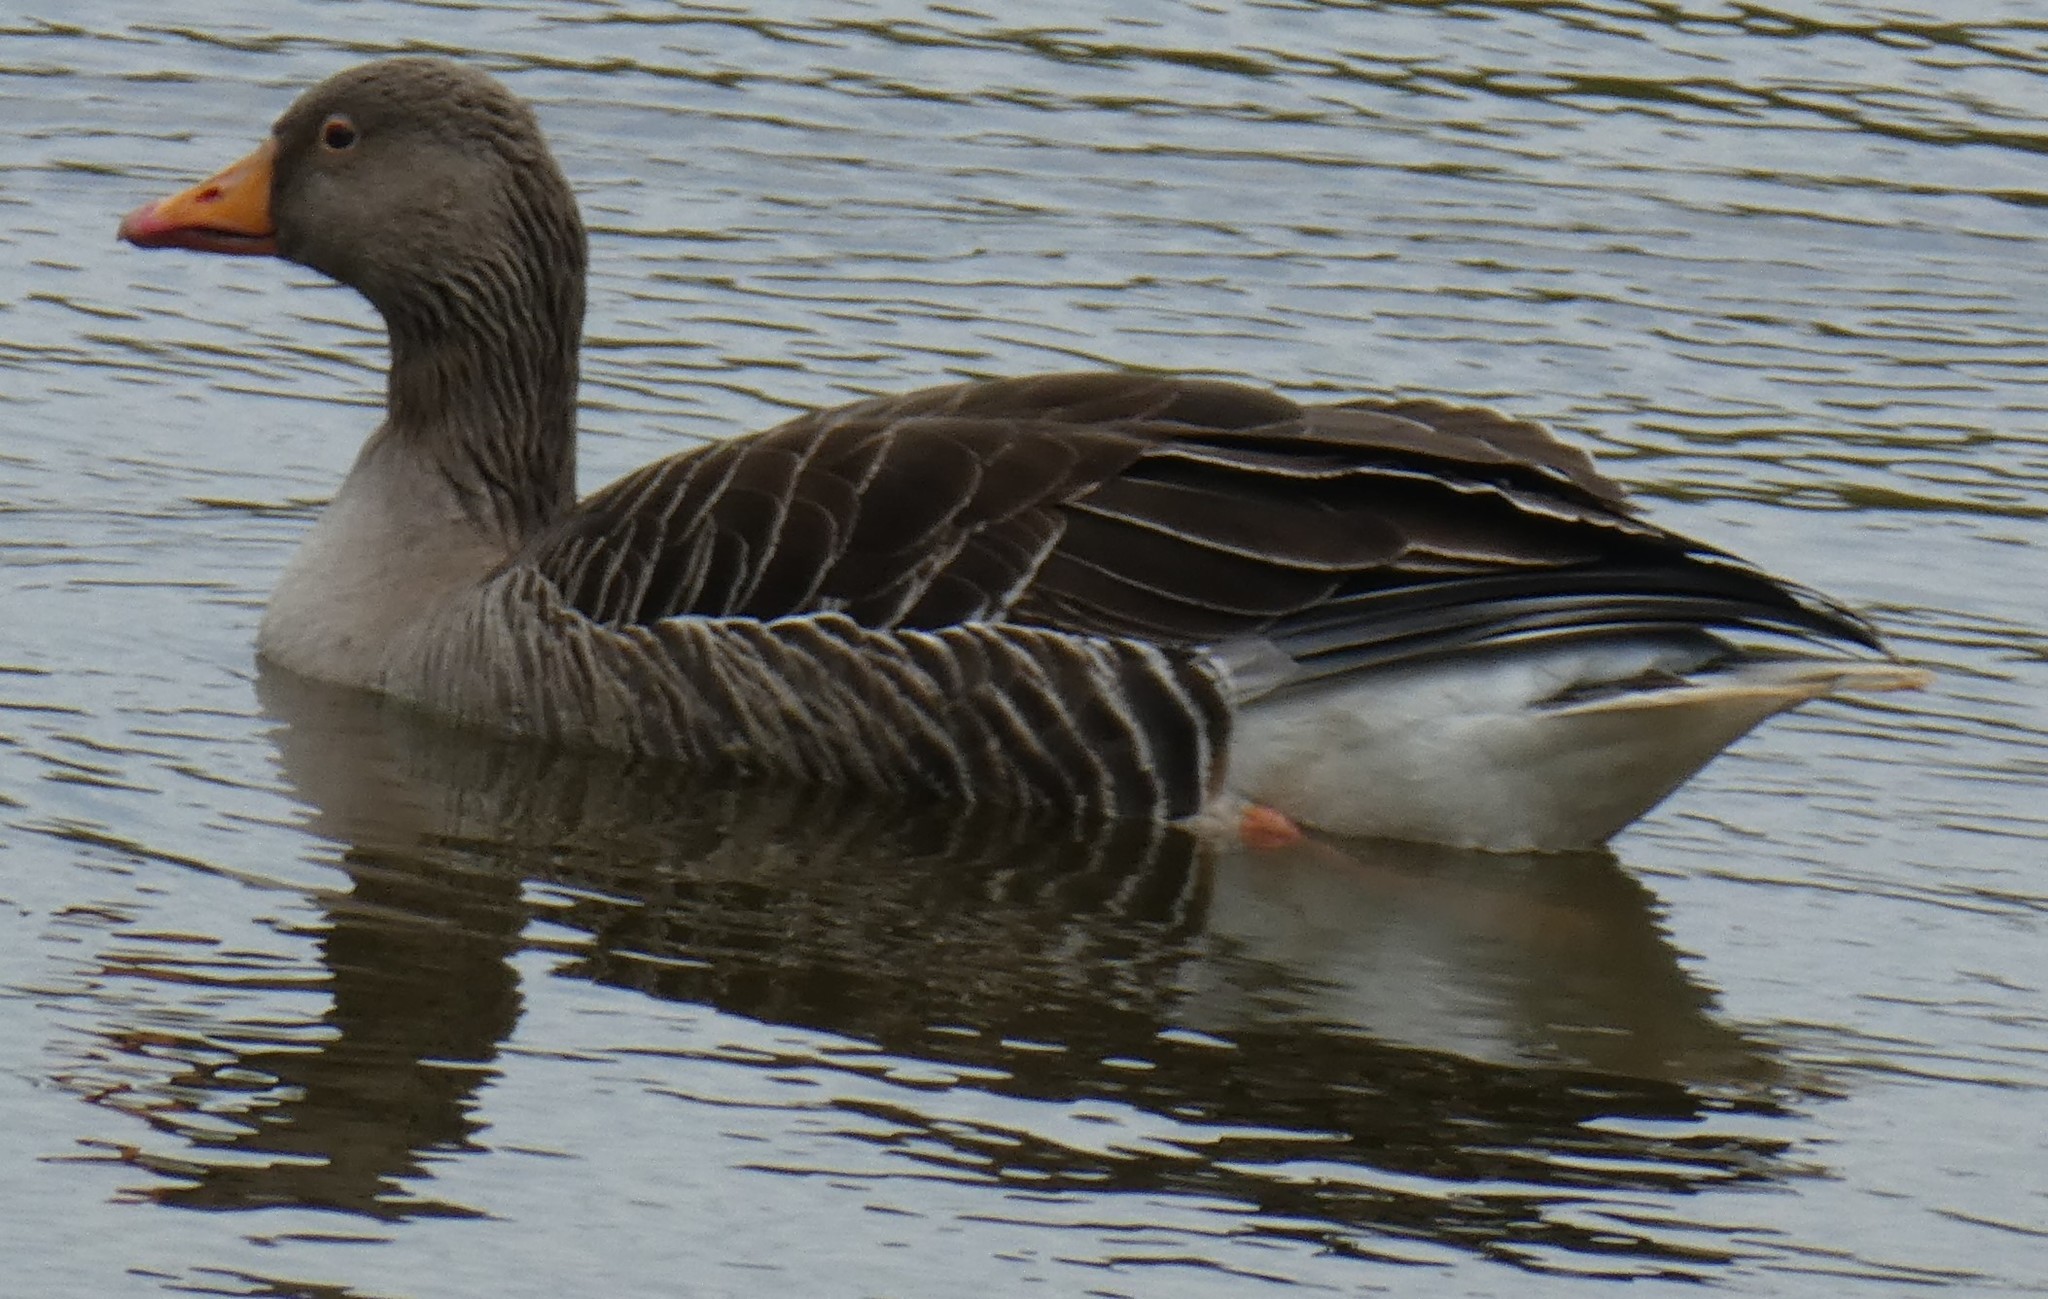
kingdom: Animalia
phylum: Chordata
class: Aves
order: Anseriformes
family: Anatidae
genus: Anser
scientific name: Anser anser
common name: Greylag goose
